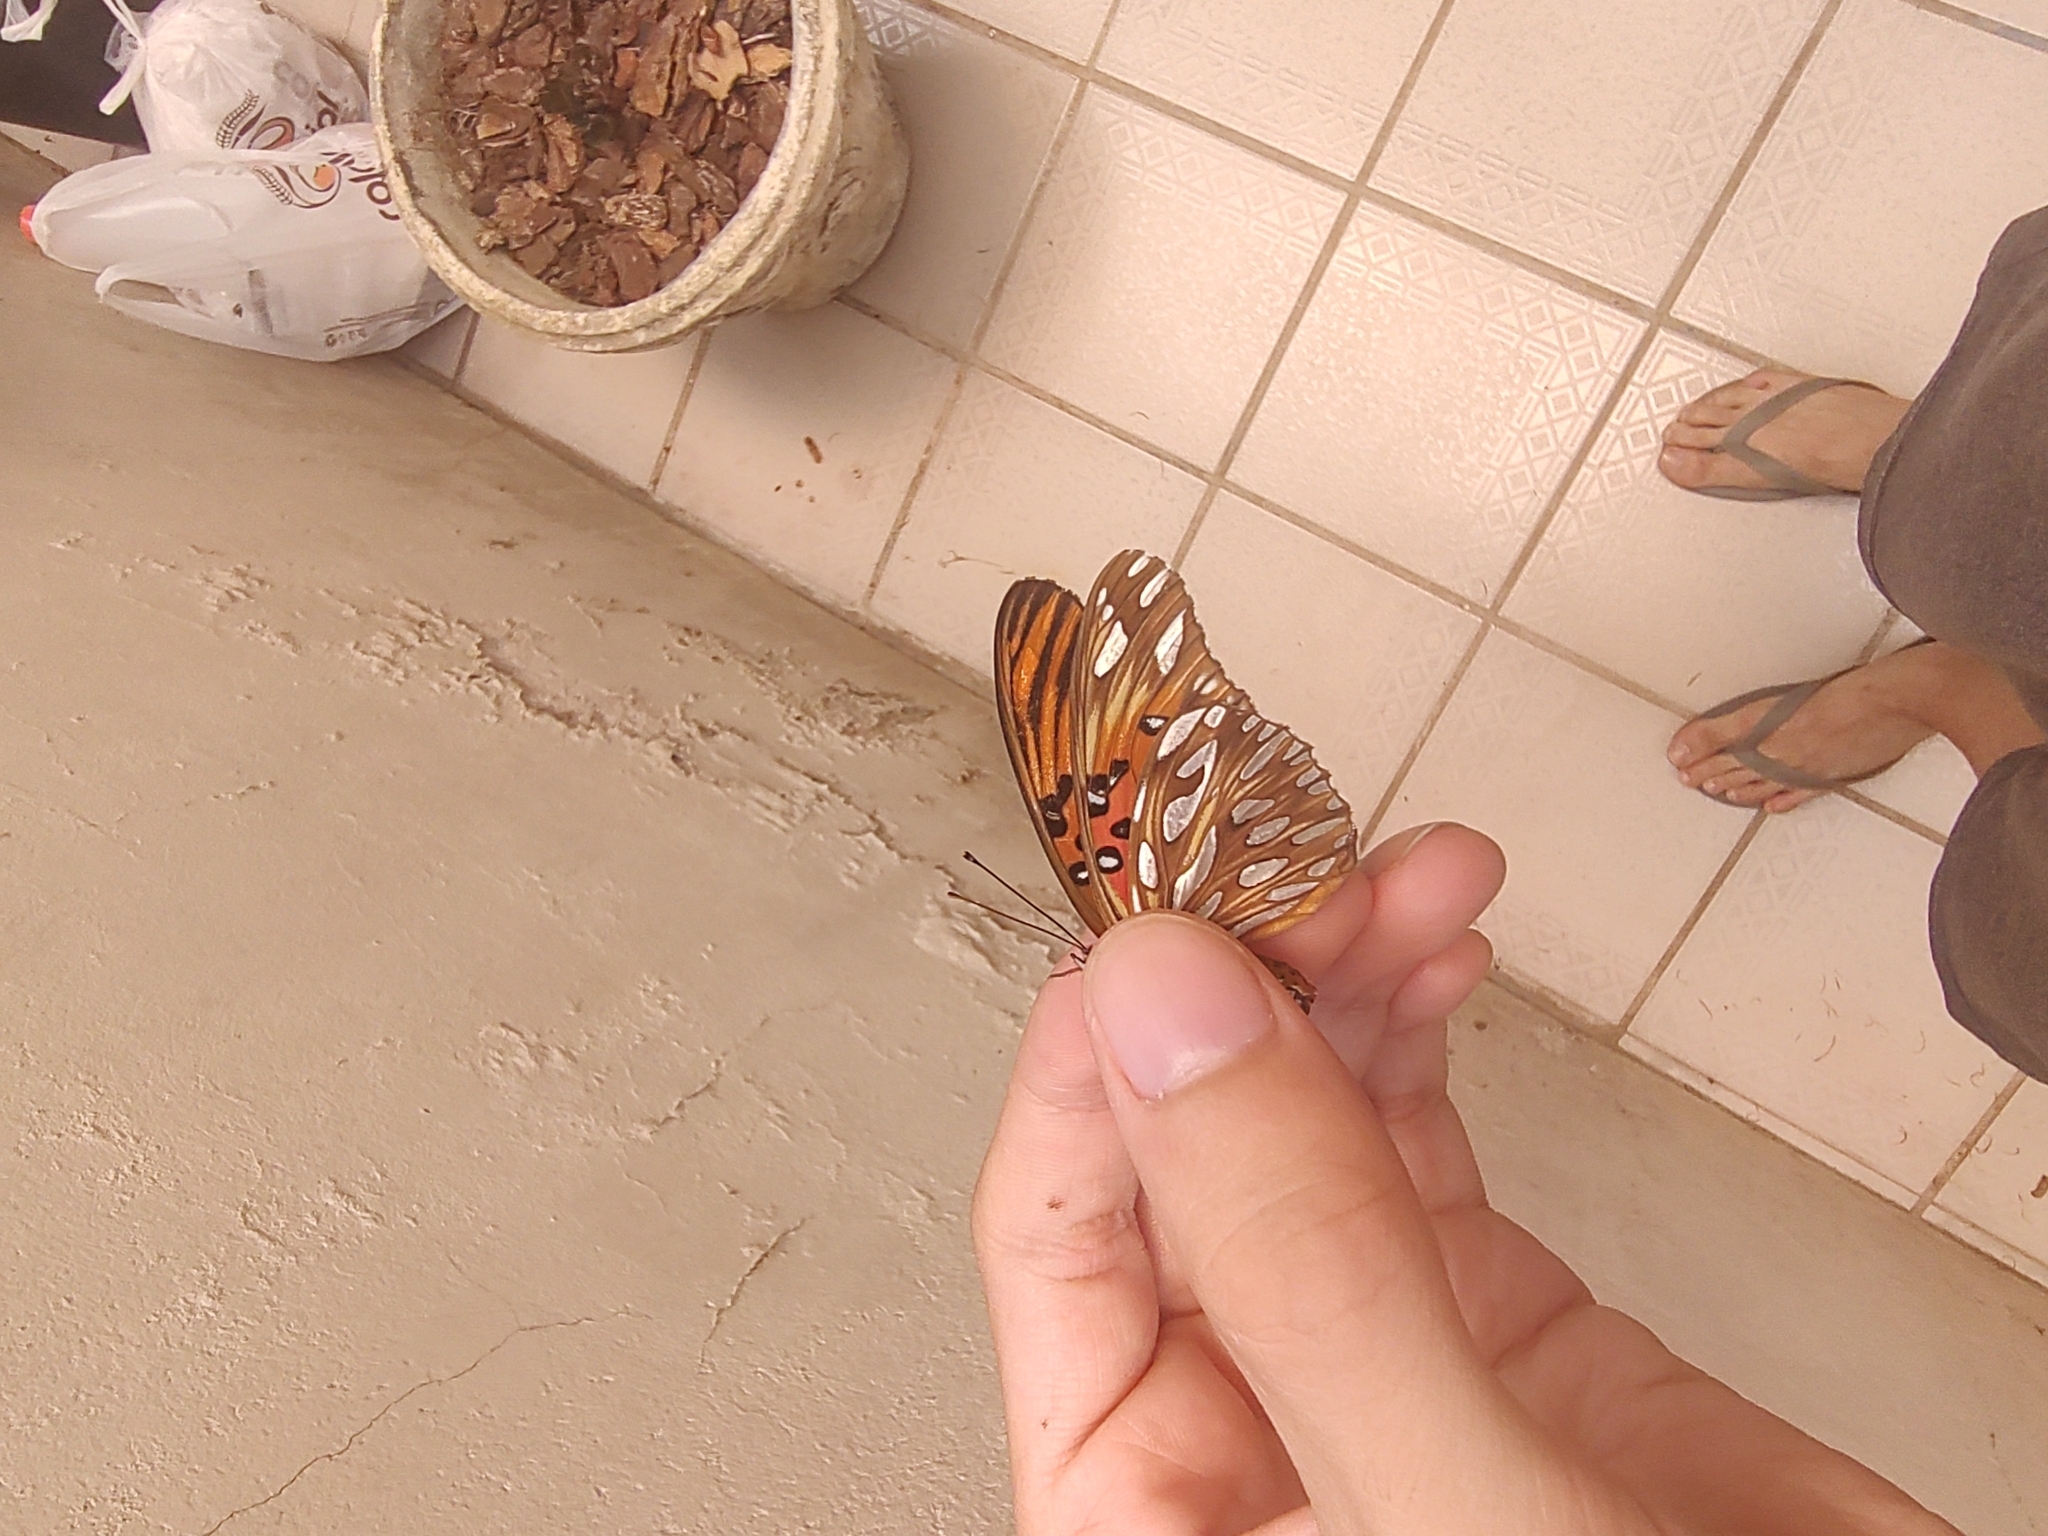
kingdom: Animalia
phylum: Arthropoda
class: Insecta
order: Lepidoptera
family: Nymphalidae
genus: Dione
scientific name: Dione vanillae
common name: Gulf fritillary
